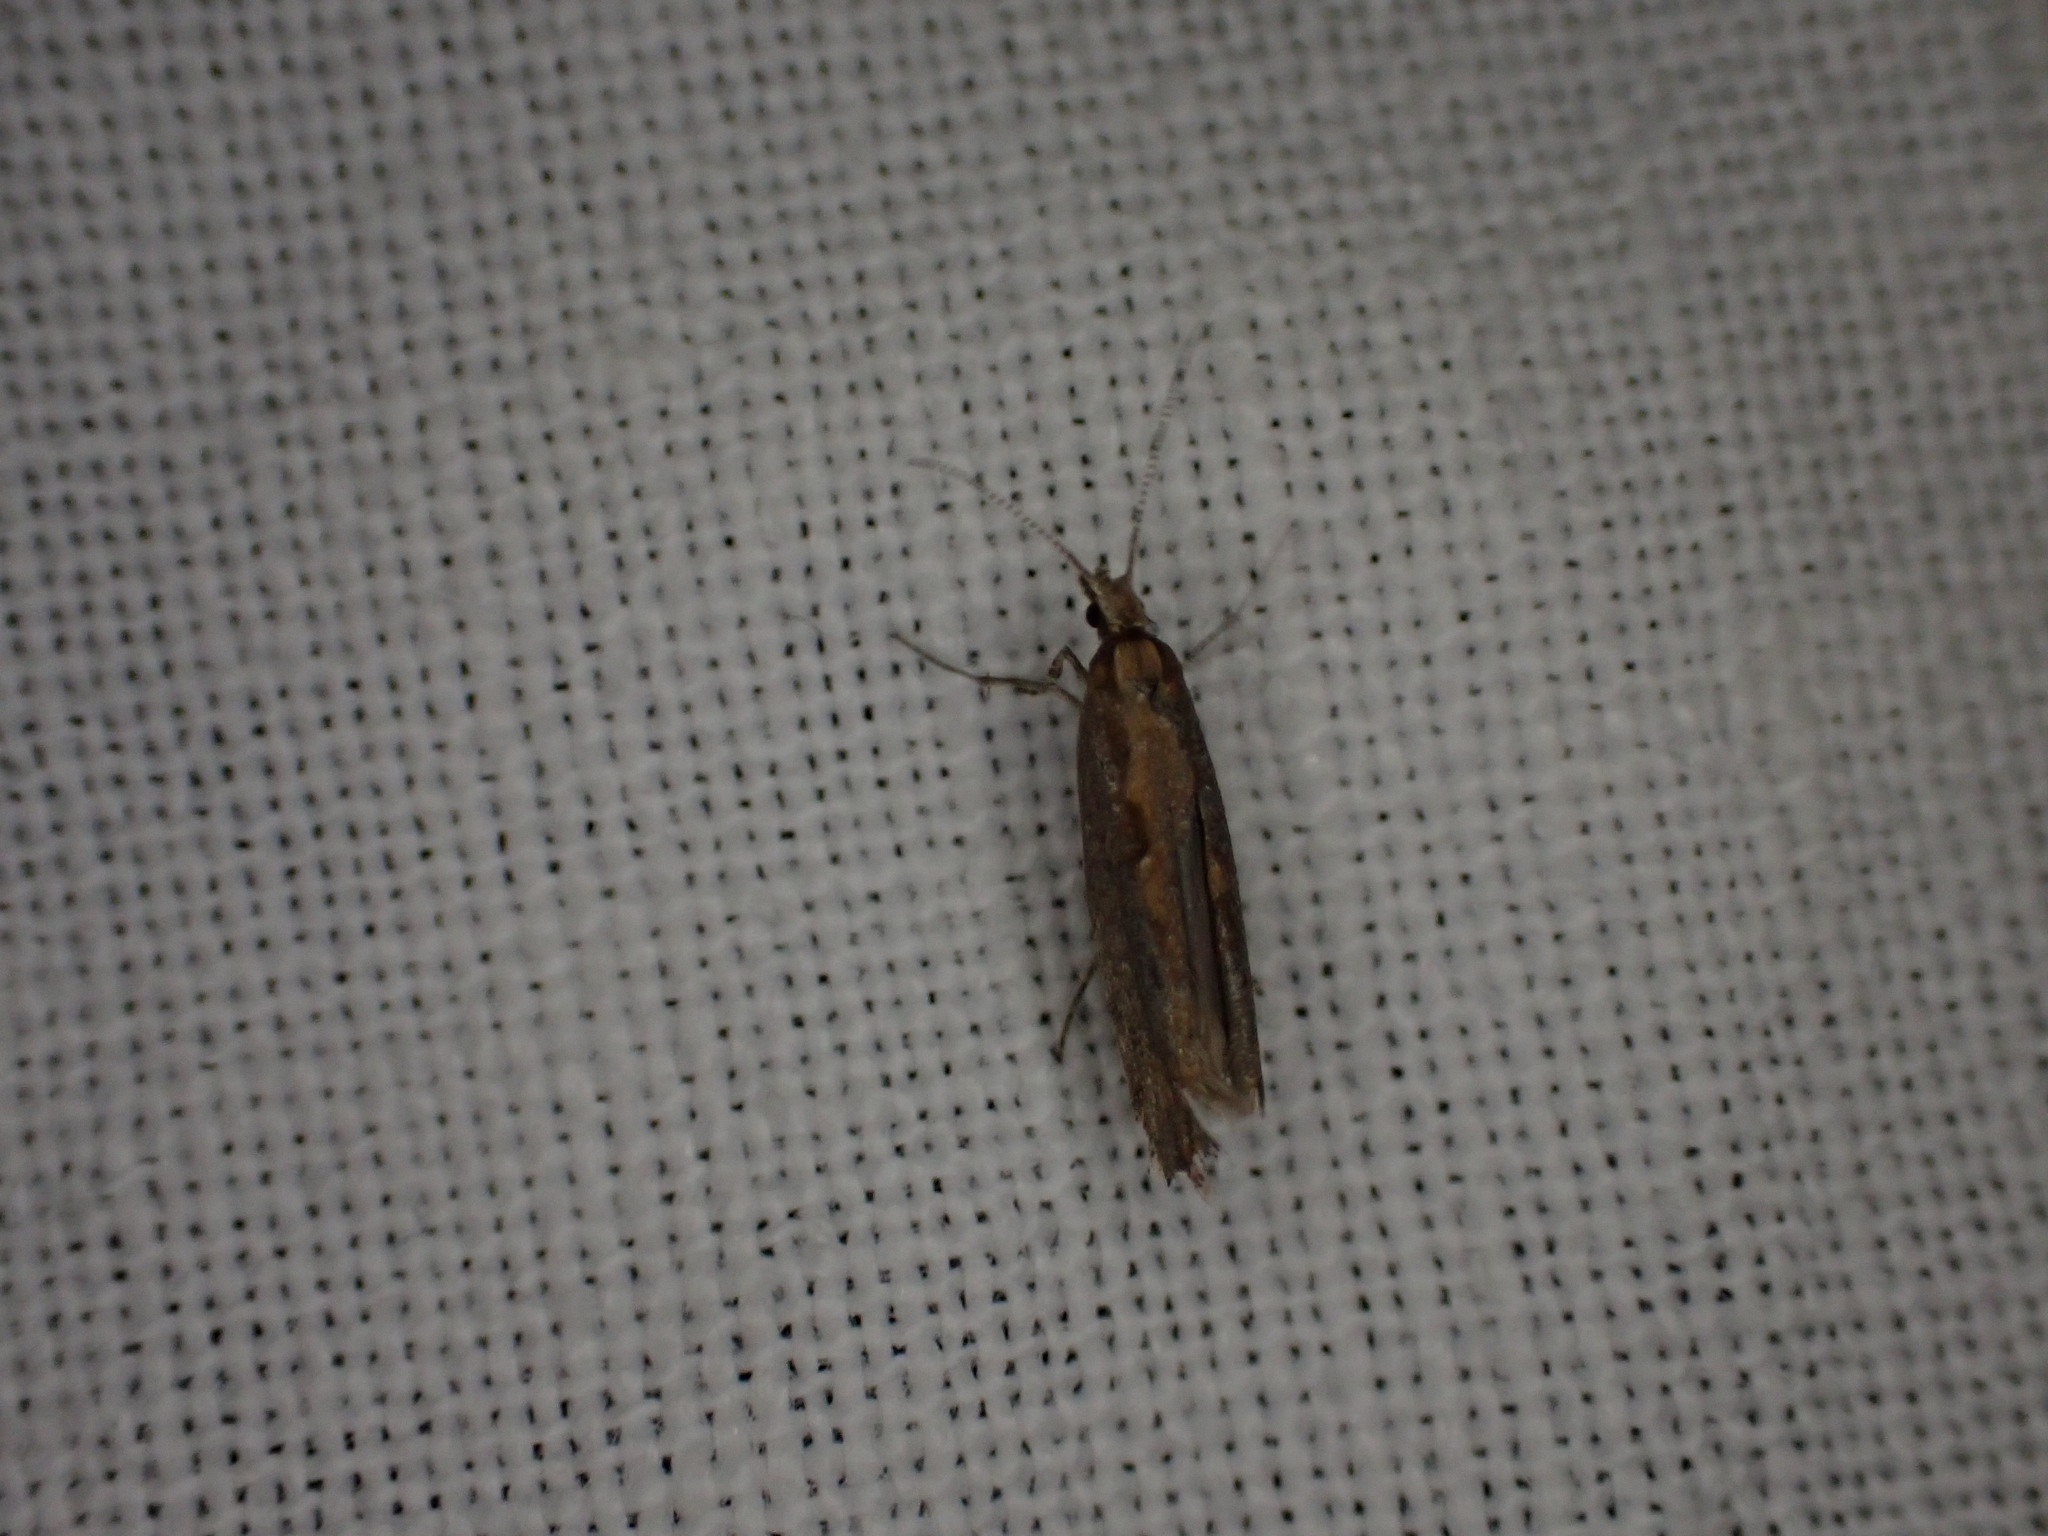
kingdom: Animalia
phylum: Arthropoda
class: Insecta
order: Lepidoptera
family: Plutellidae
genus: Plutella
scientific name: Plutella xylostella
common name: Diamond-back moth
